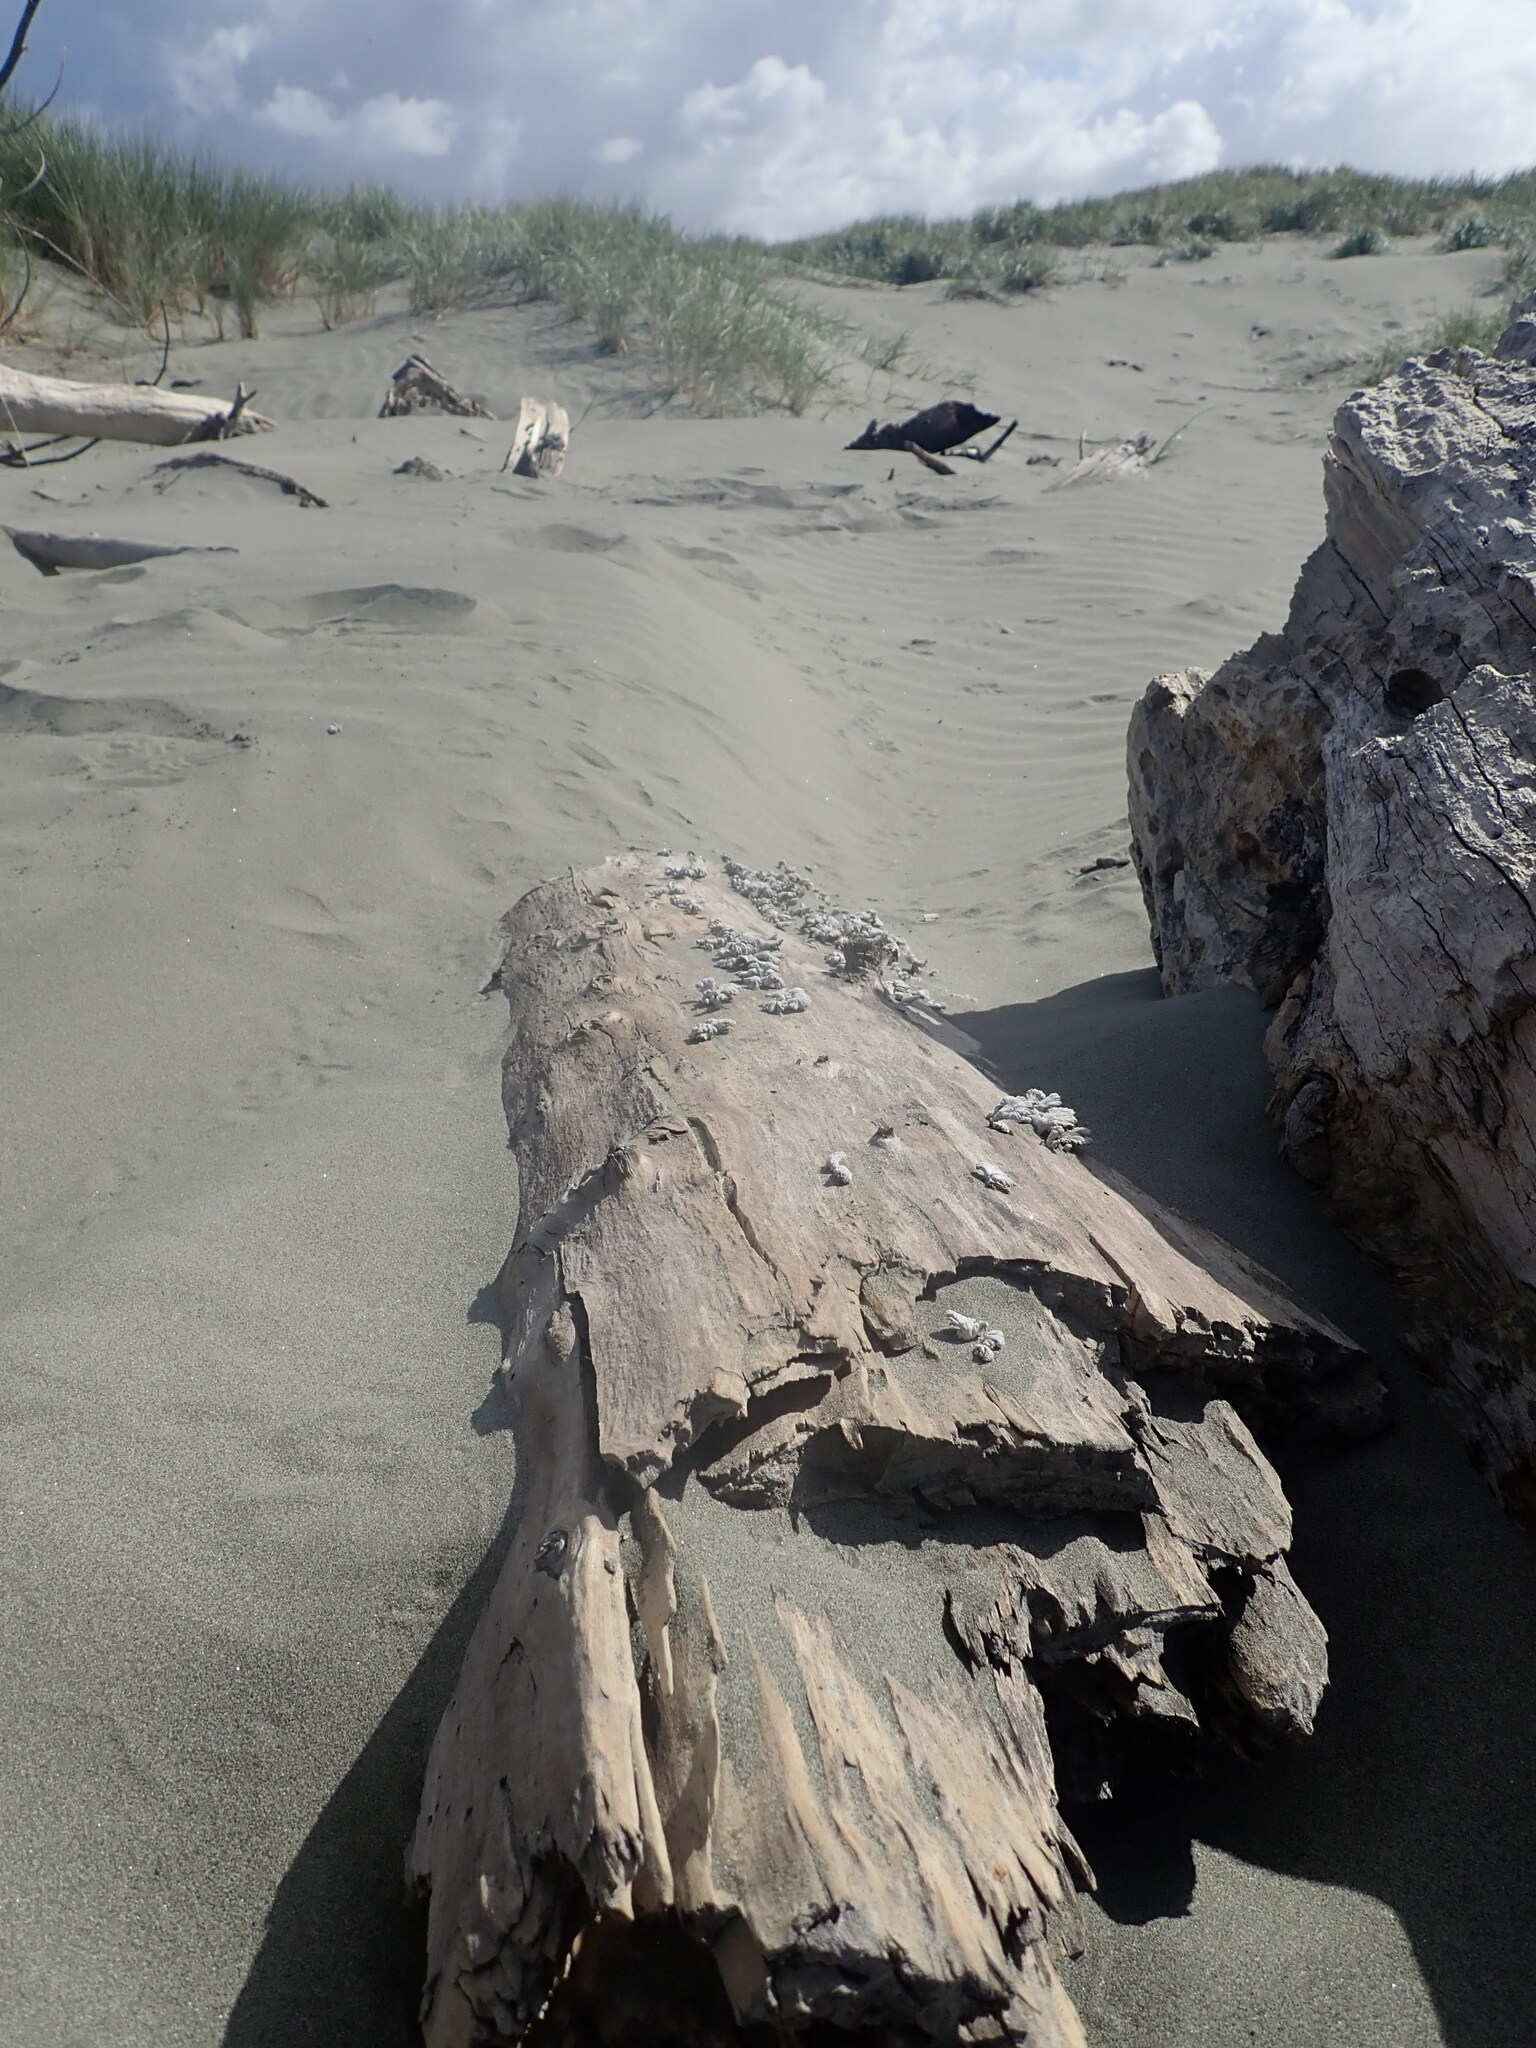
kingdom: Fungi
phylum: Basidiomycota
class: Agaricomycetes
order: Agaricales
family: Schizophyllaceae
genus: Schizophyllum
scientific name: Schizophyllum commune
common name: Common porecrust
